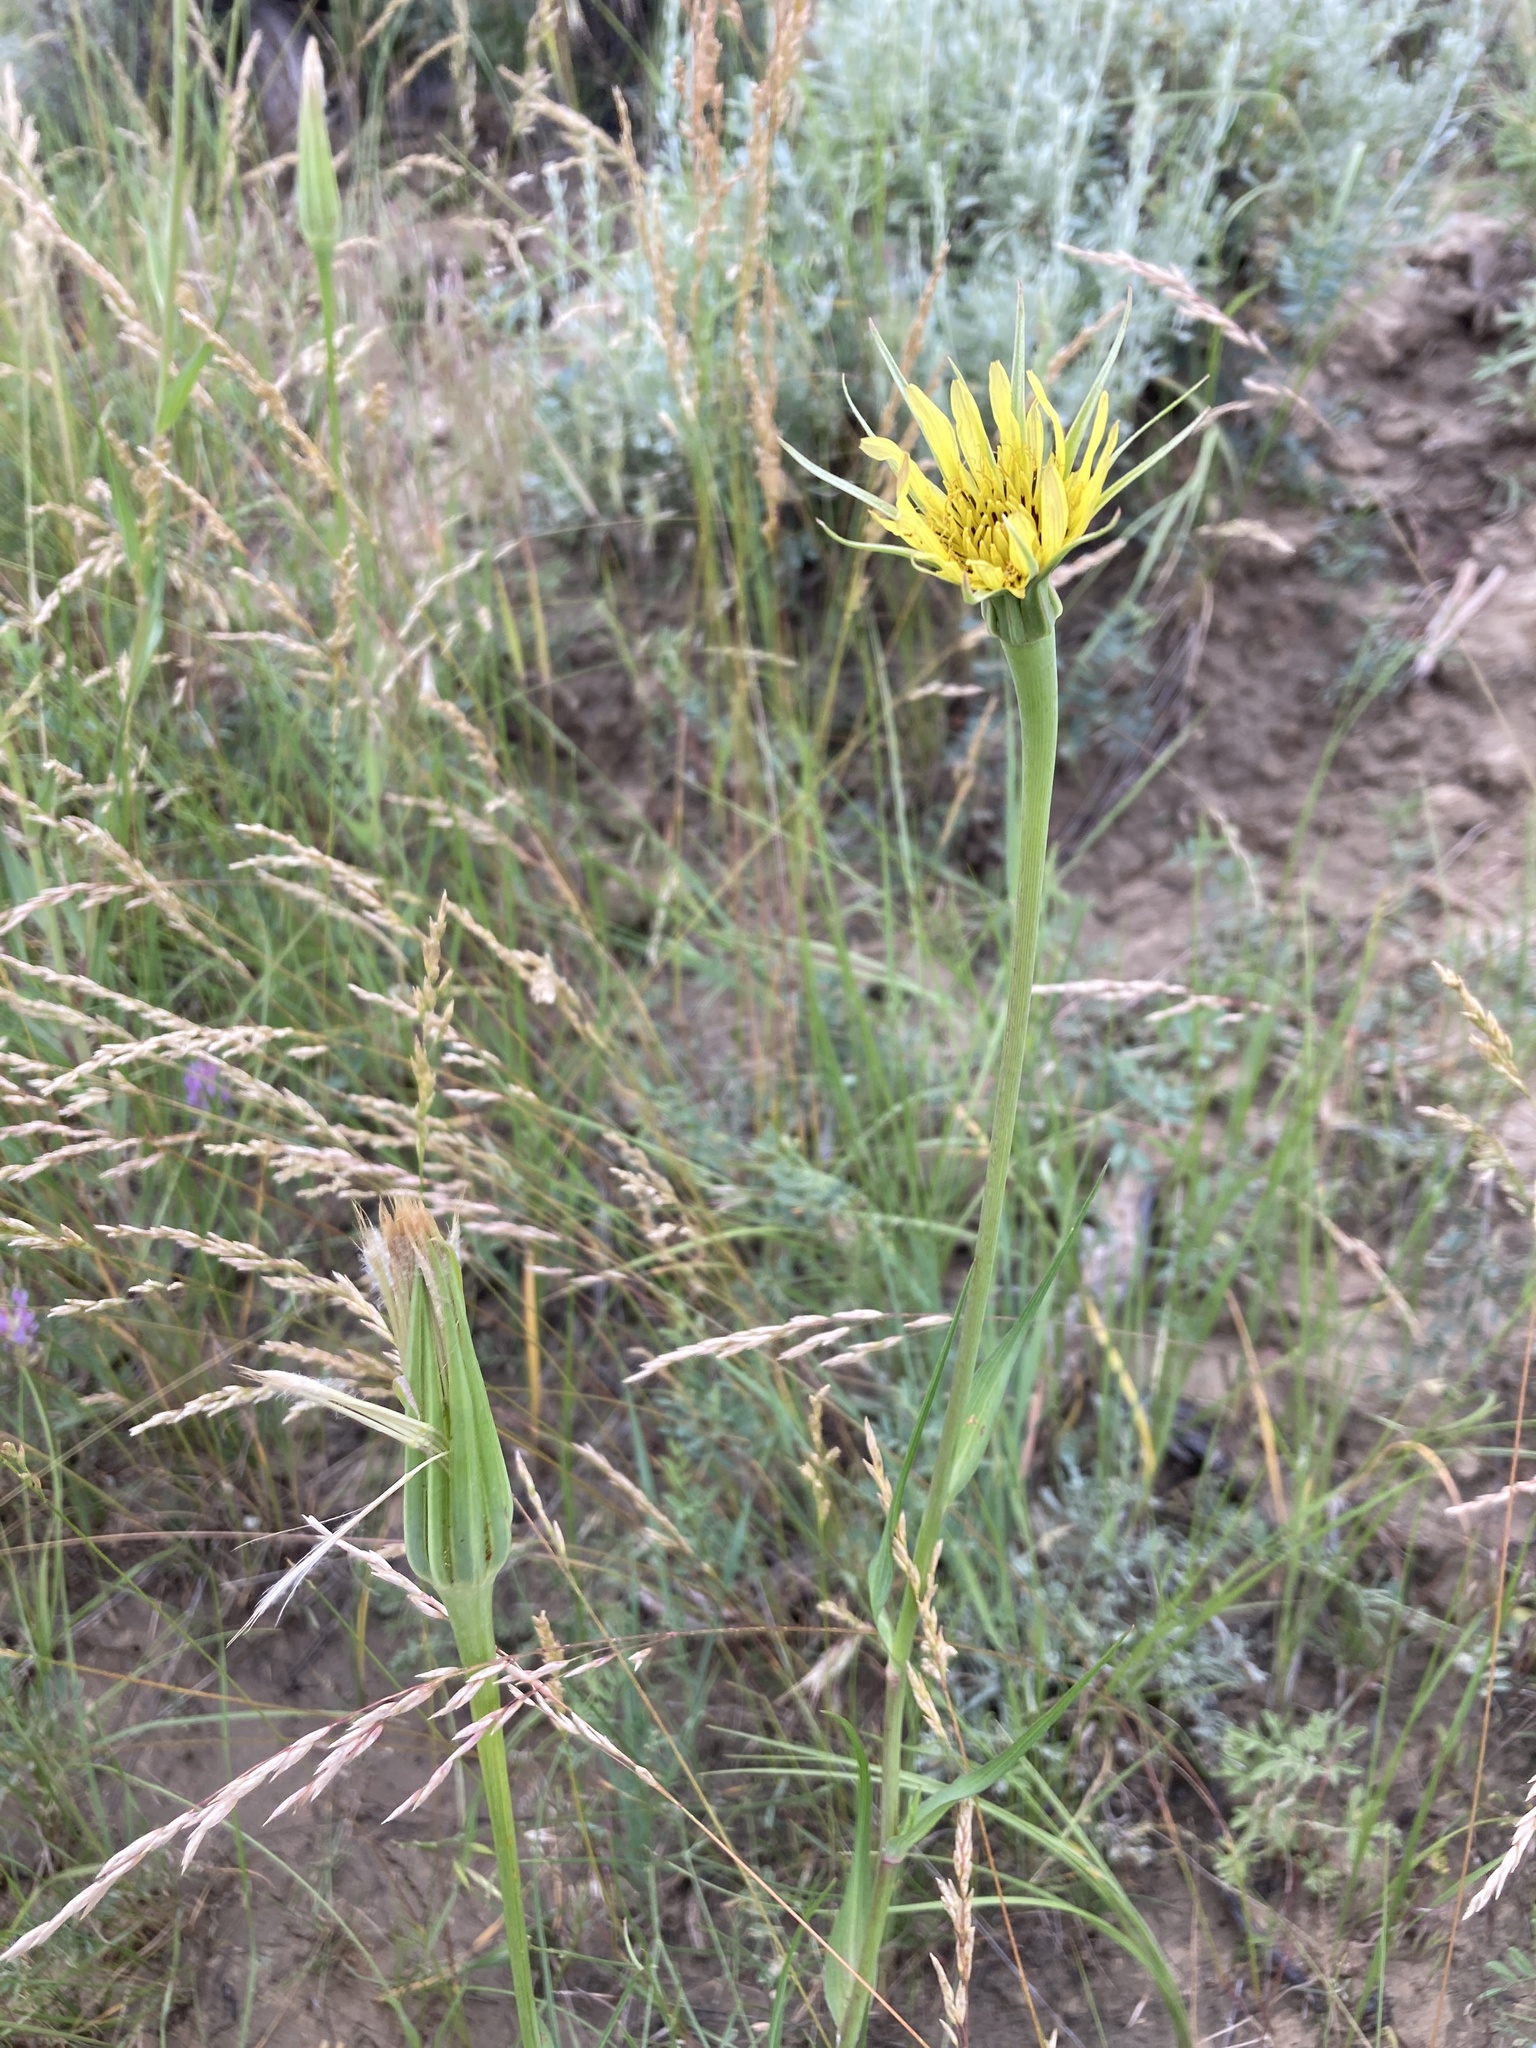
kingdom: Plantae
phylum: Tracheophyta
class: Magnoliopsida
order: Asterales
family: Asteraceae
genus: Tragopogon
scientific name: Tragopogon dubius
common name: Yellow salsify
